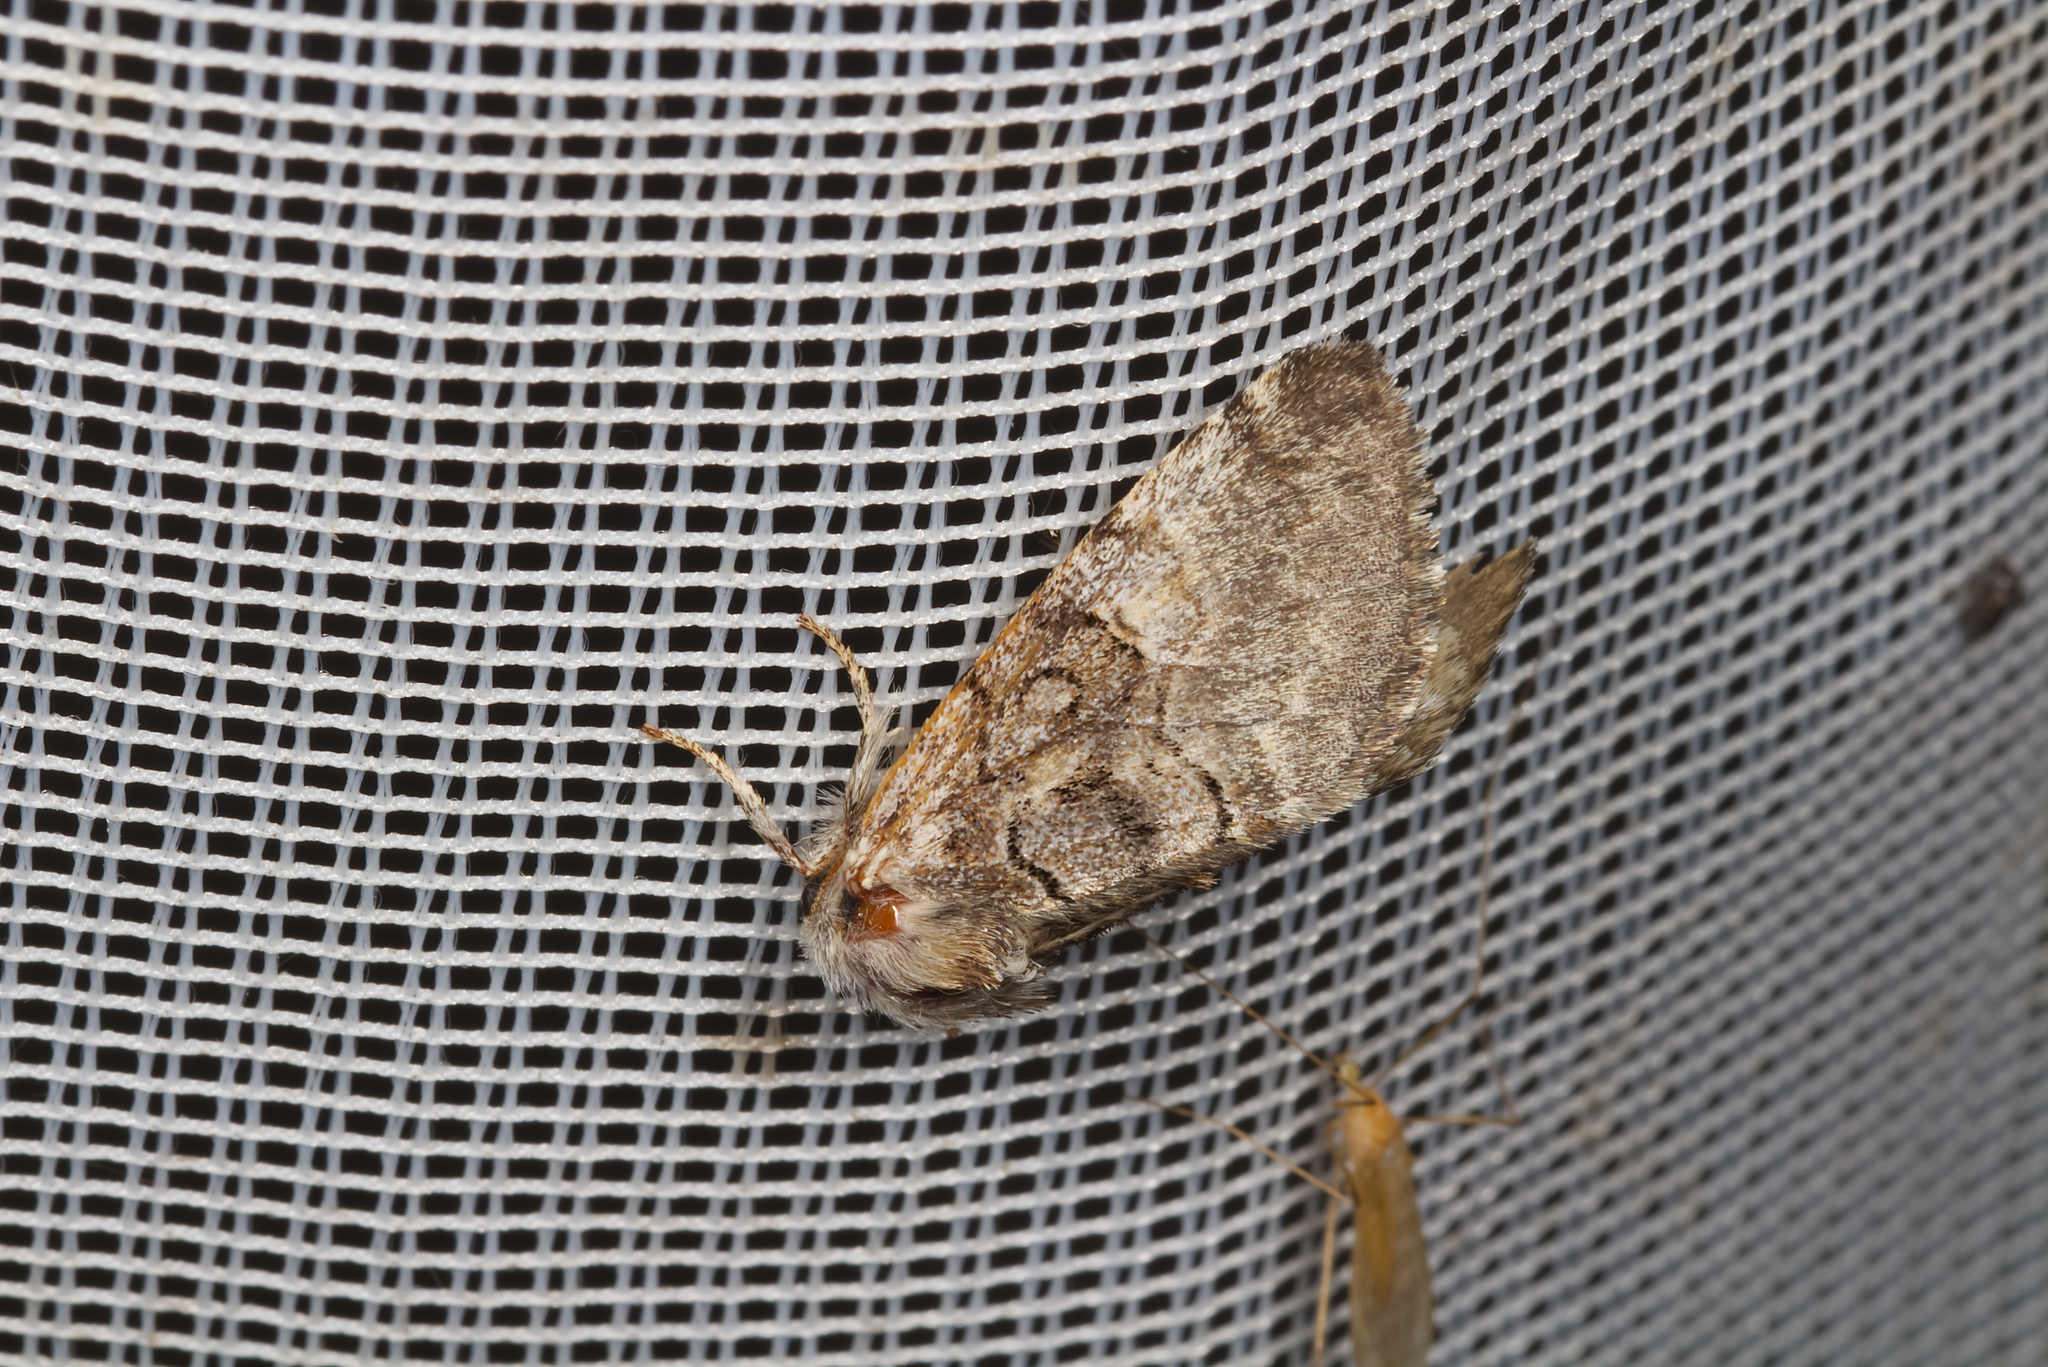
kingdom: Animalia
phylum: Arthropoda
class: Insecta
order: Lepidoptera
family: Noctuidae
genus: Colocasia
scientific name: Colocasia coryli
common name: Nut-tree tussock
